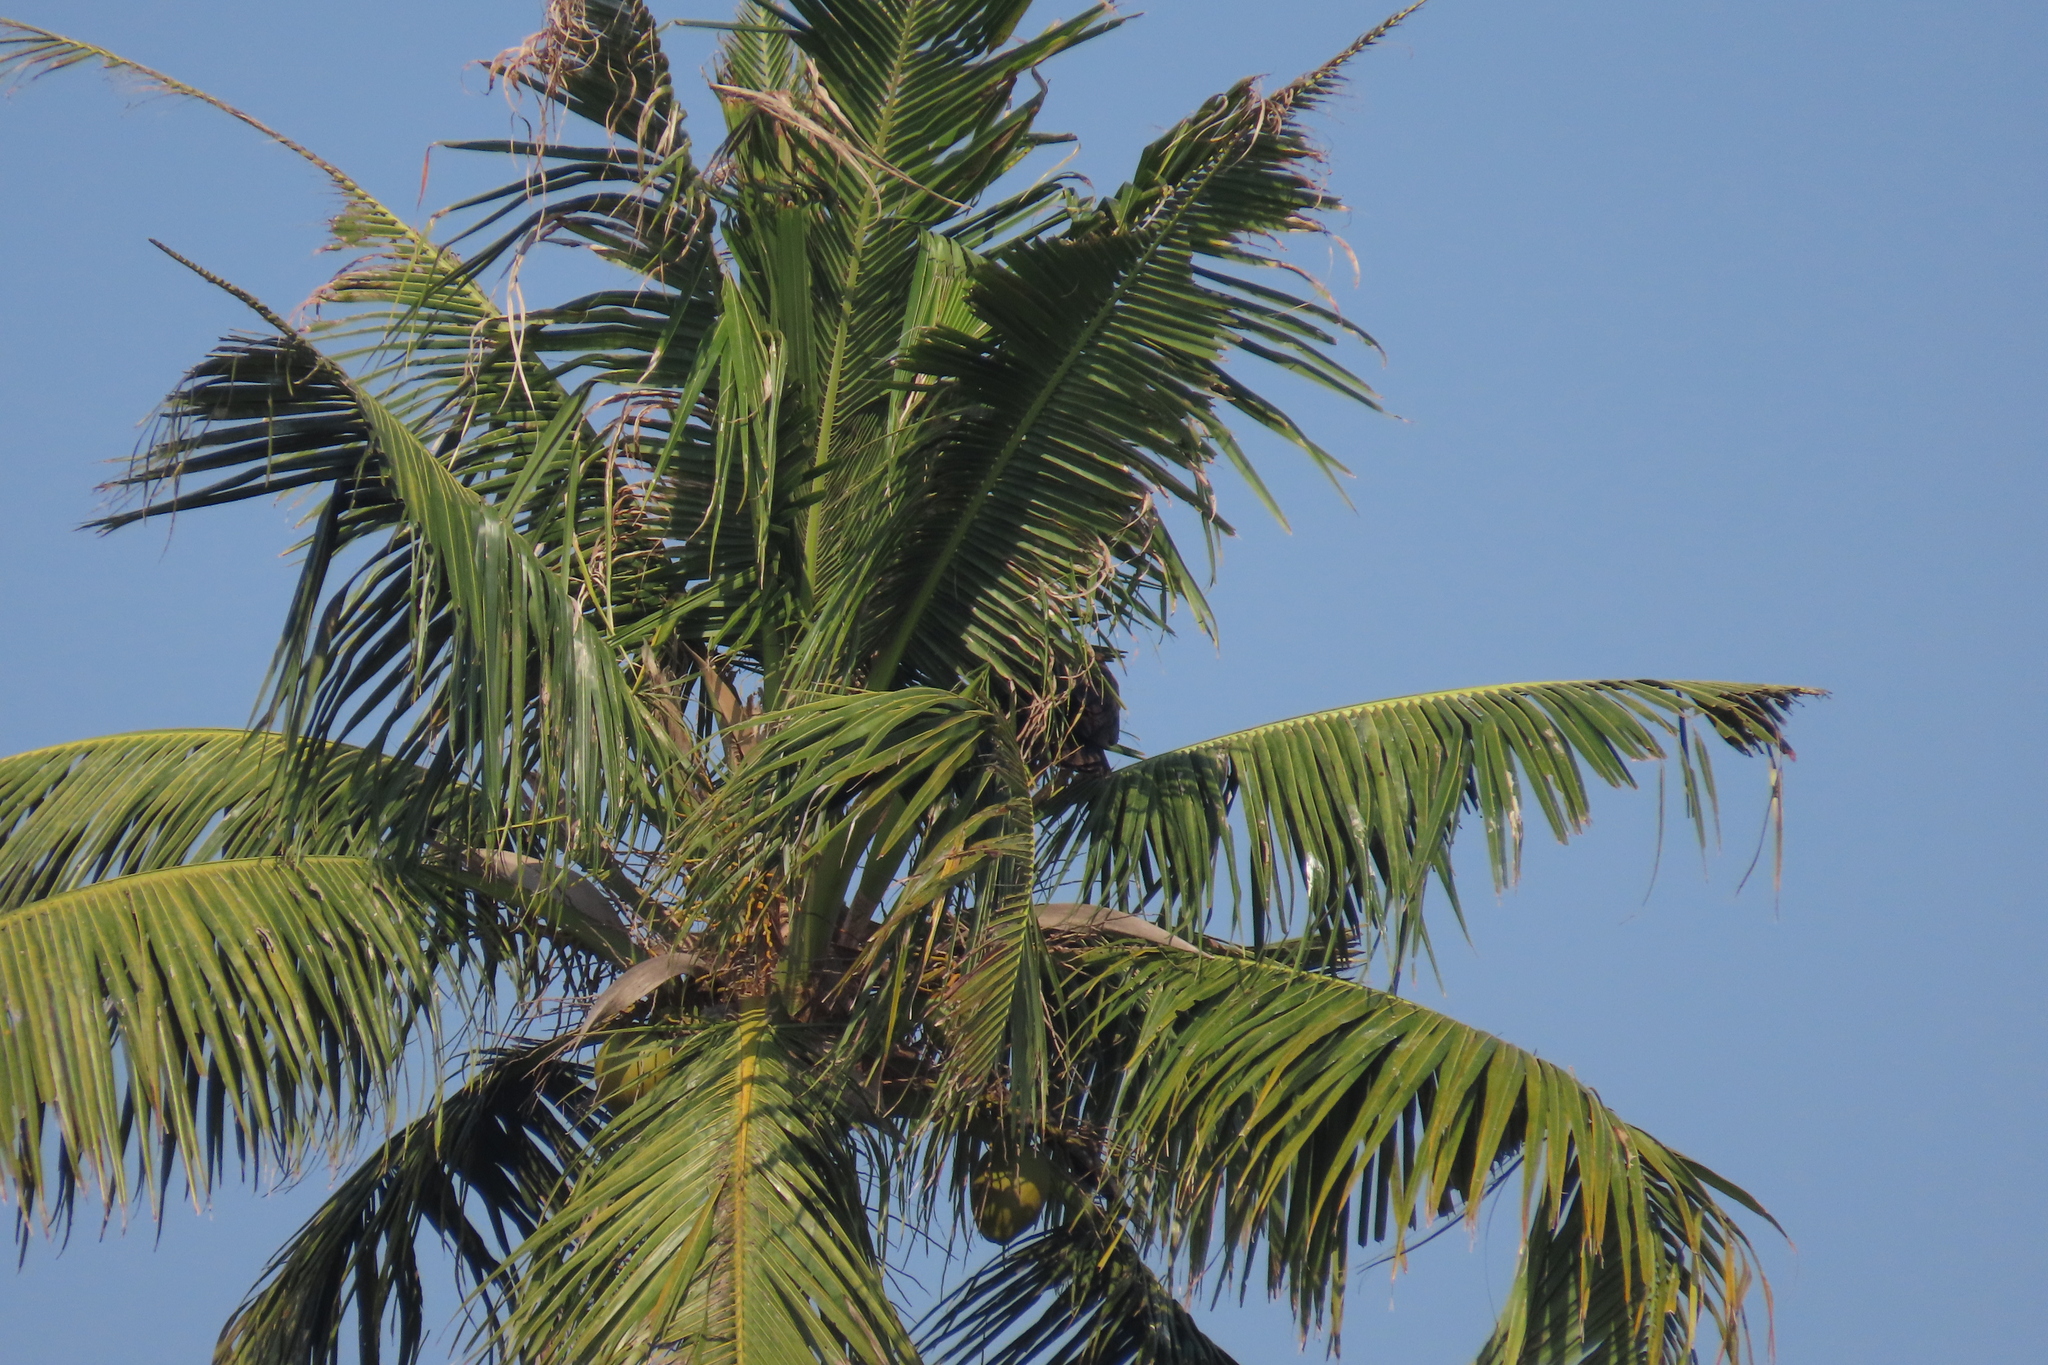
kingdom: Plantae
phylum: Tracheophyta
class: Liliopsida
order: Arecales
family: Arecaceae
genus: Cocos
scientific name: Cocos nucifera
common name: Coconut palm
